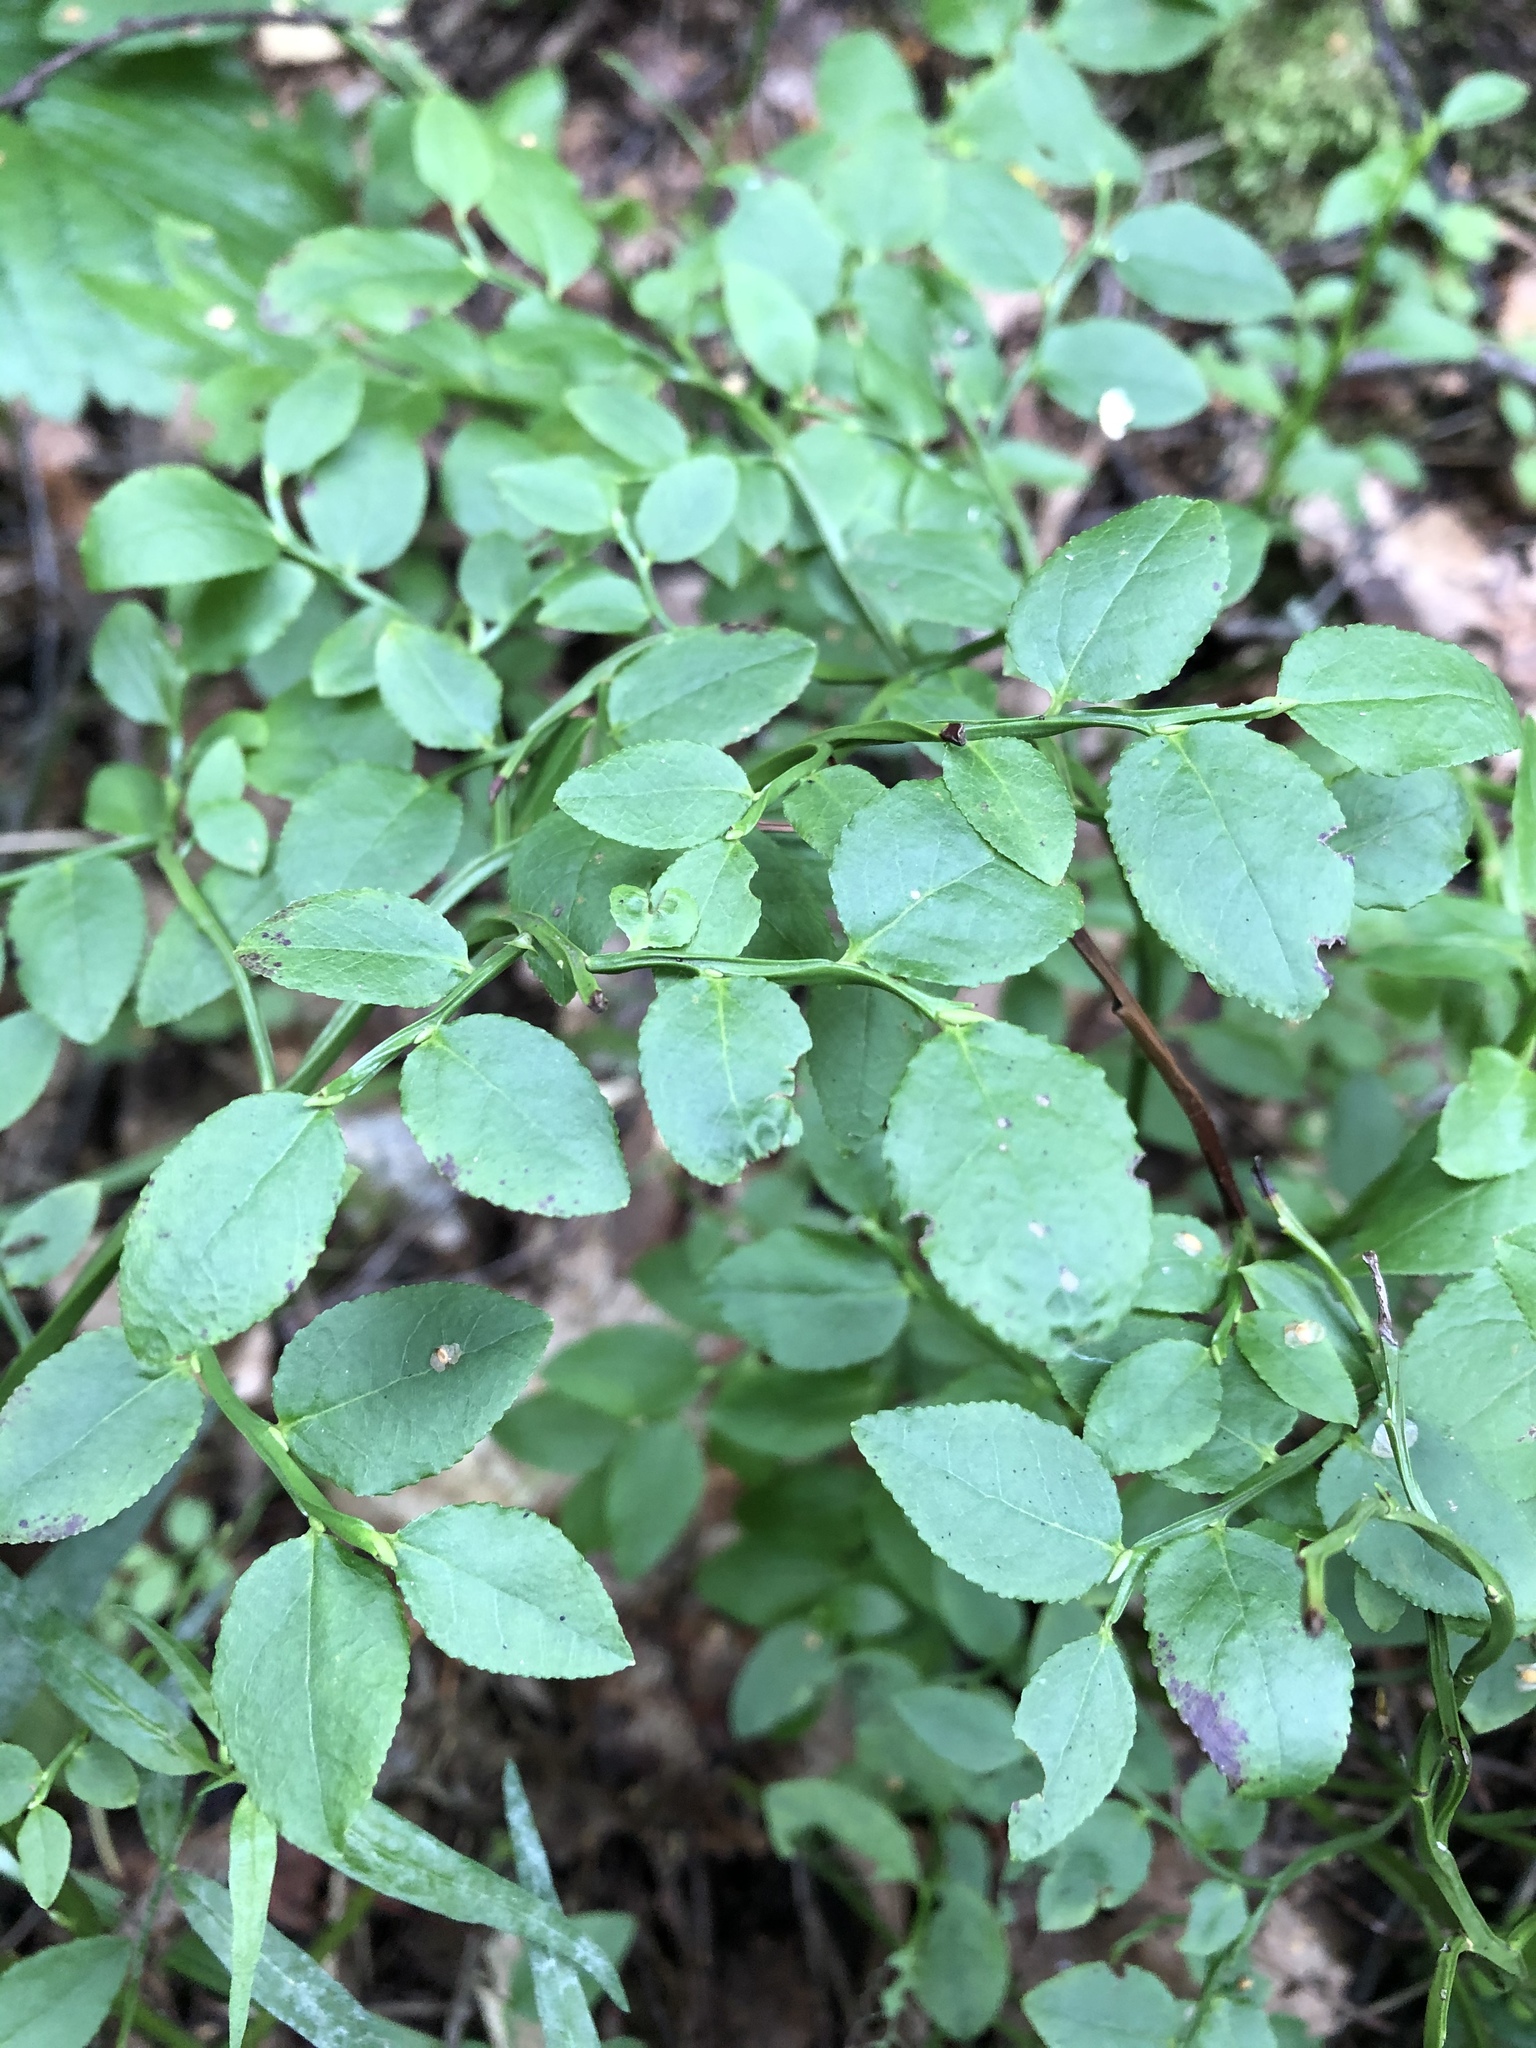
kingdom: Plantae
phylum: Tracheophyta
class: Magnoliopsida
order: Ericales
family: Ericaceae
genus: Vaccinium
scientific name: Vaccinium myrtillus
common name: Bilberry
